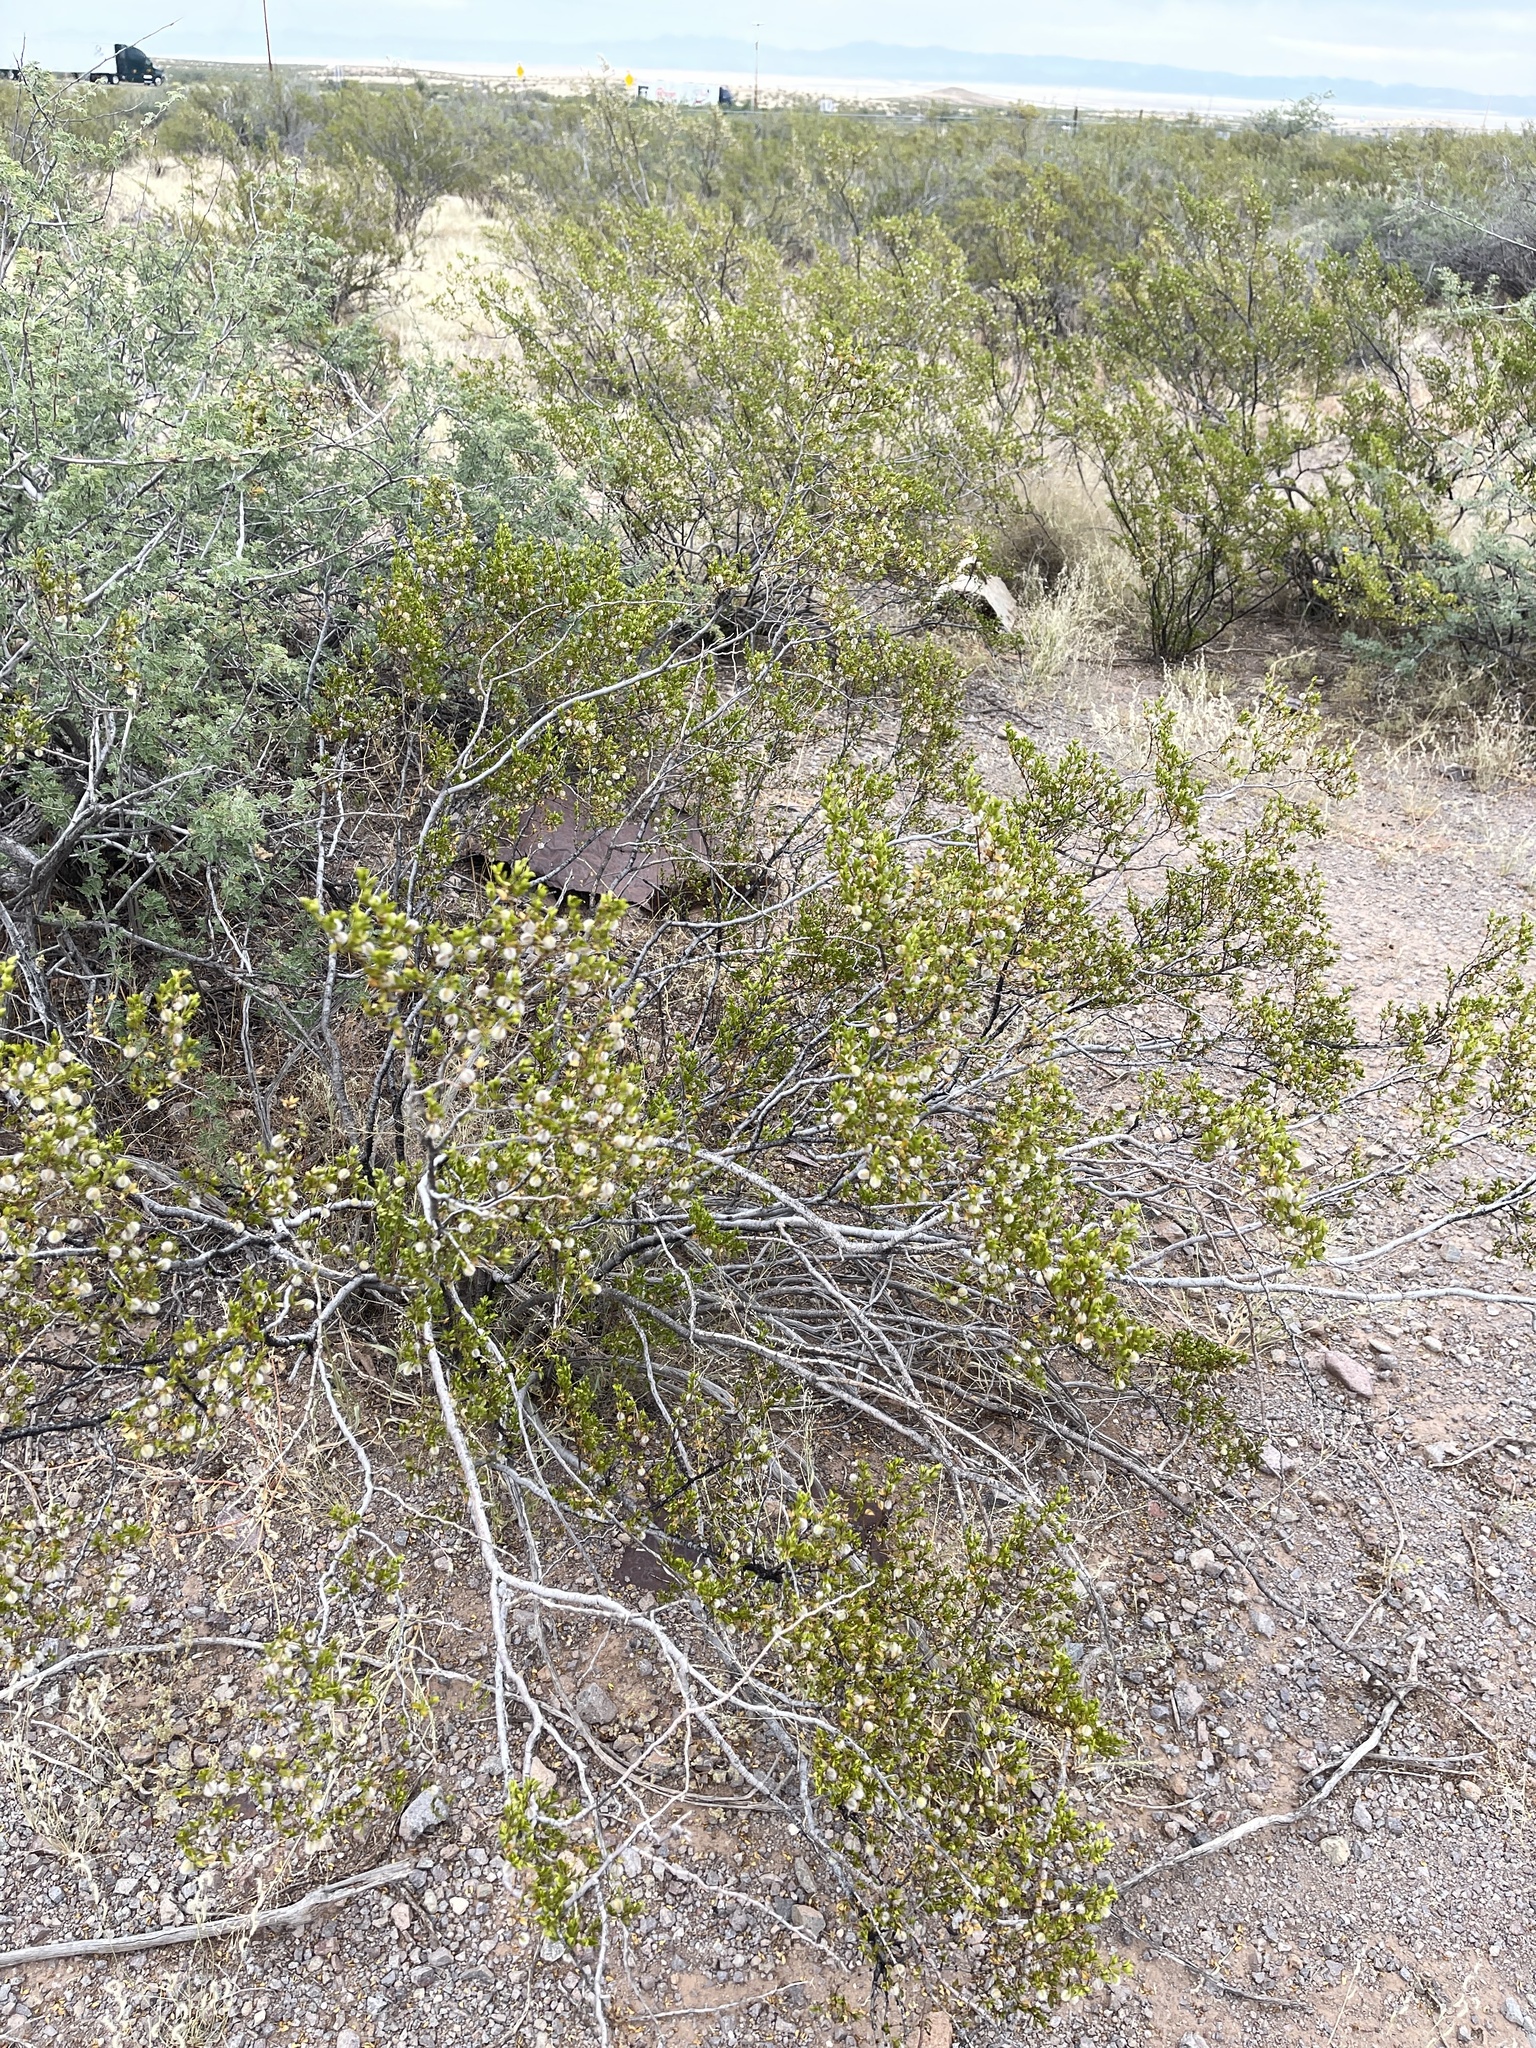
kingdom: Plantae
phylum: Tracheophyta
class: Magnoliopsida
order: Zygophyllales
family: Zygophyllaceae
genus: Larrea
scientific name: Larrea tridentata
